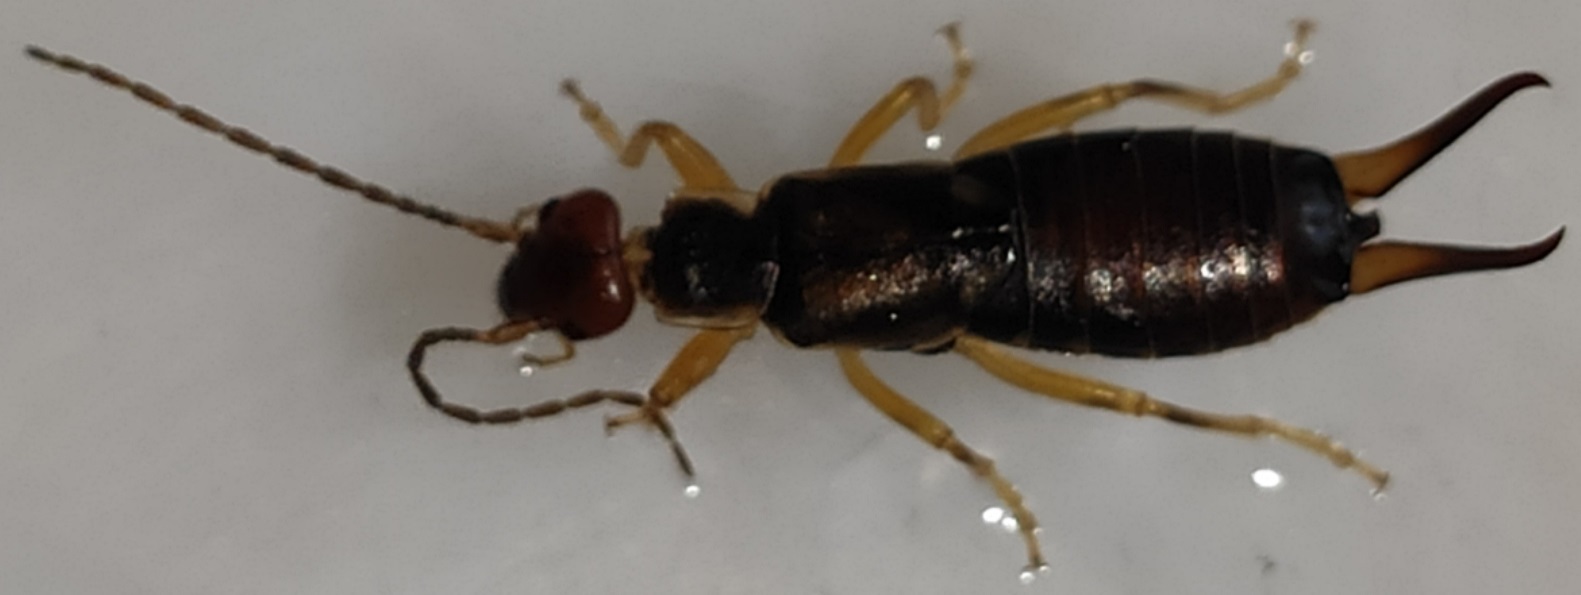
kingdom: Animalia
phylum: Arthropoda
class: Insecta
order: Dermaptera
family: Forficulidae
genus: Forficula
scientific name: Forficula
